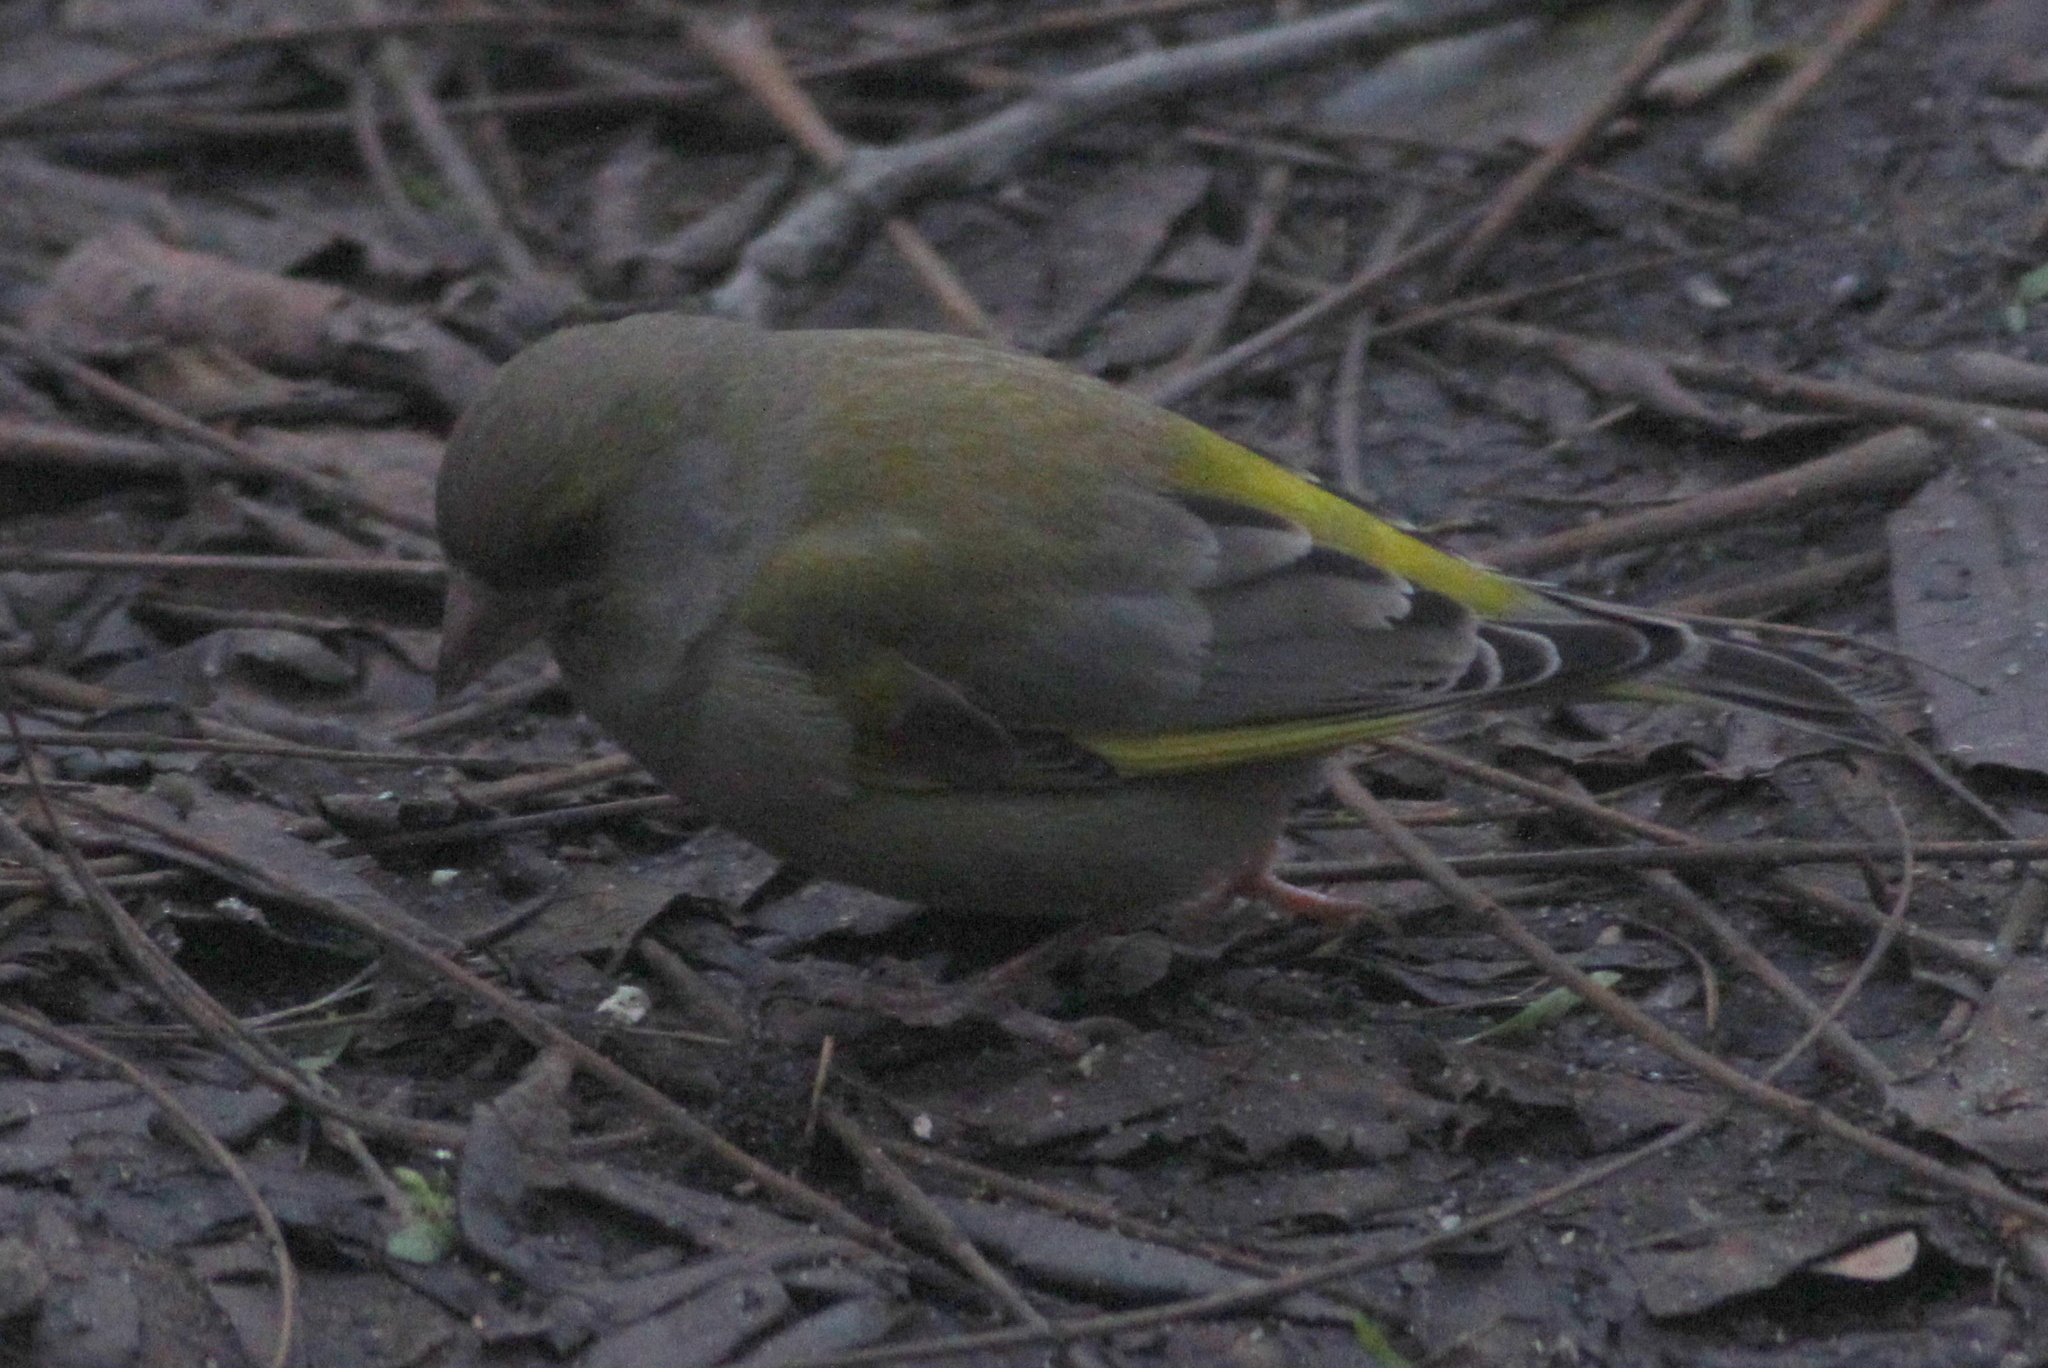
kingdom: Plantae
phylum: Tracheophyta
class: Liliopsida
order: Poales
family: Poaceae
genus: Chloris
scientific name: Chloris chloris
